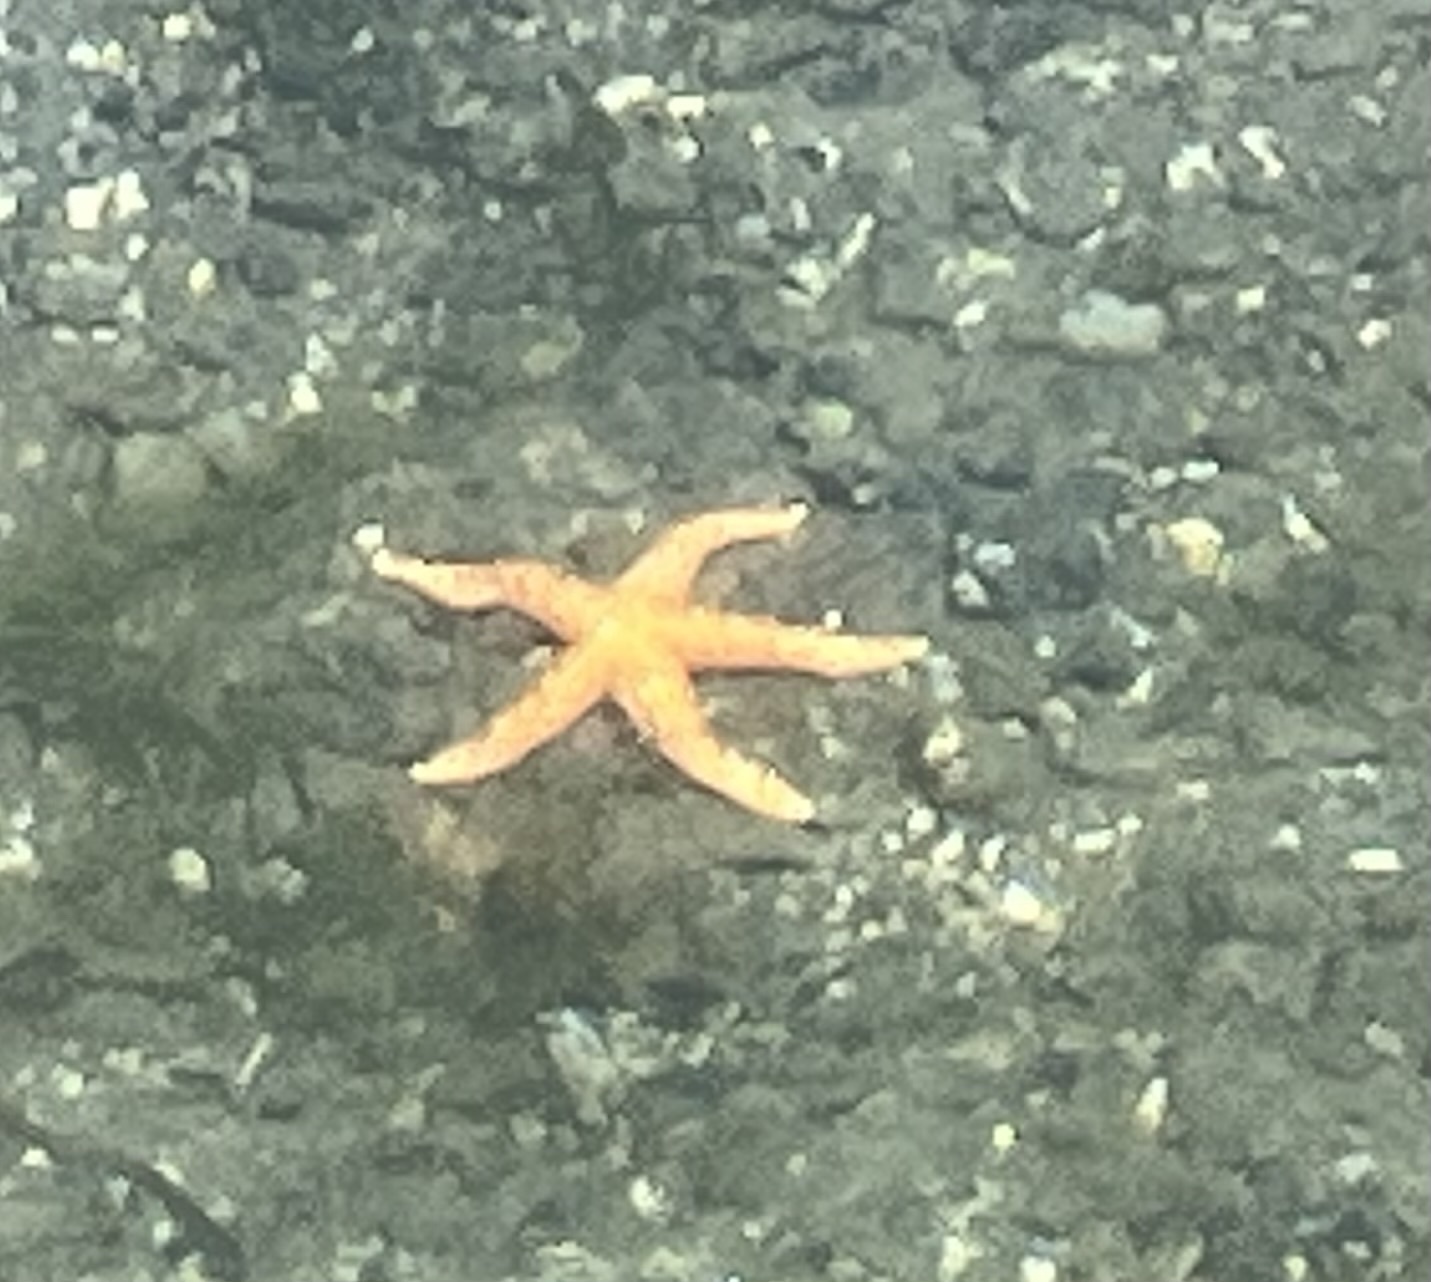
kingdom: Animalia
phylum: Echinodermata
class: Asteroidea
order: Forcipulatida
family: Asteriidae
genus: Evasterias
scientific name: Evasterias troschelii
